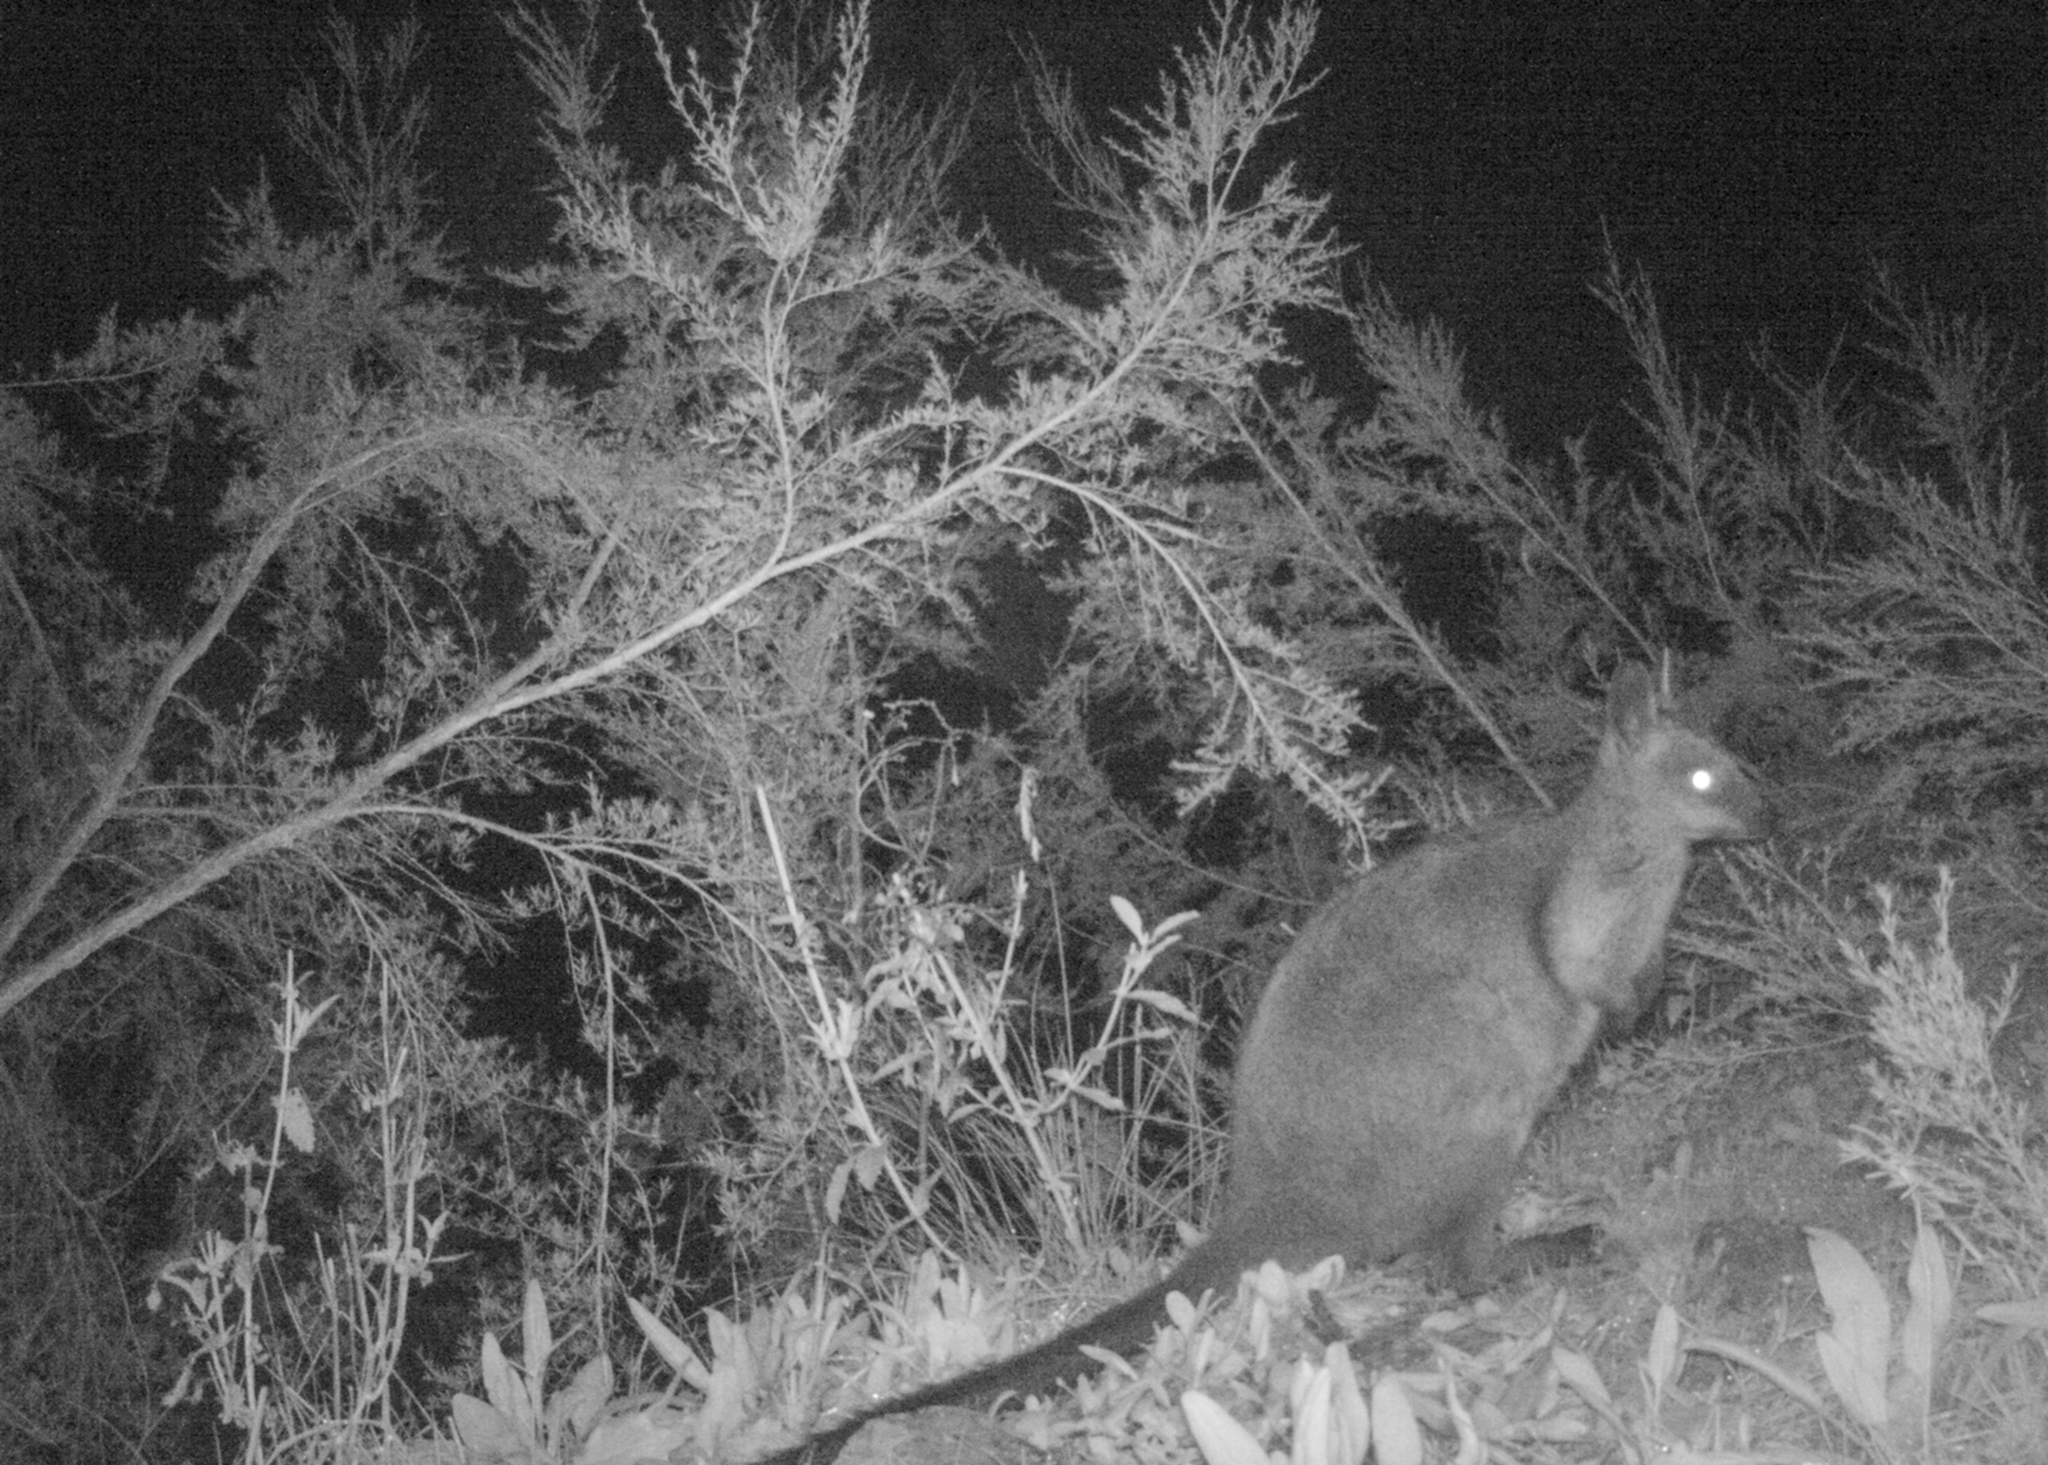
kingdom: Animalia
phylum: Chordata
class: Mammalia
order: Diprotodontia
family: Macropodidae
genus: Wallabia
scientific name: Wallabia bicolor
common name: Swamp wallaby
